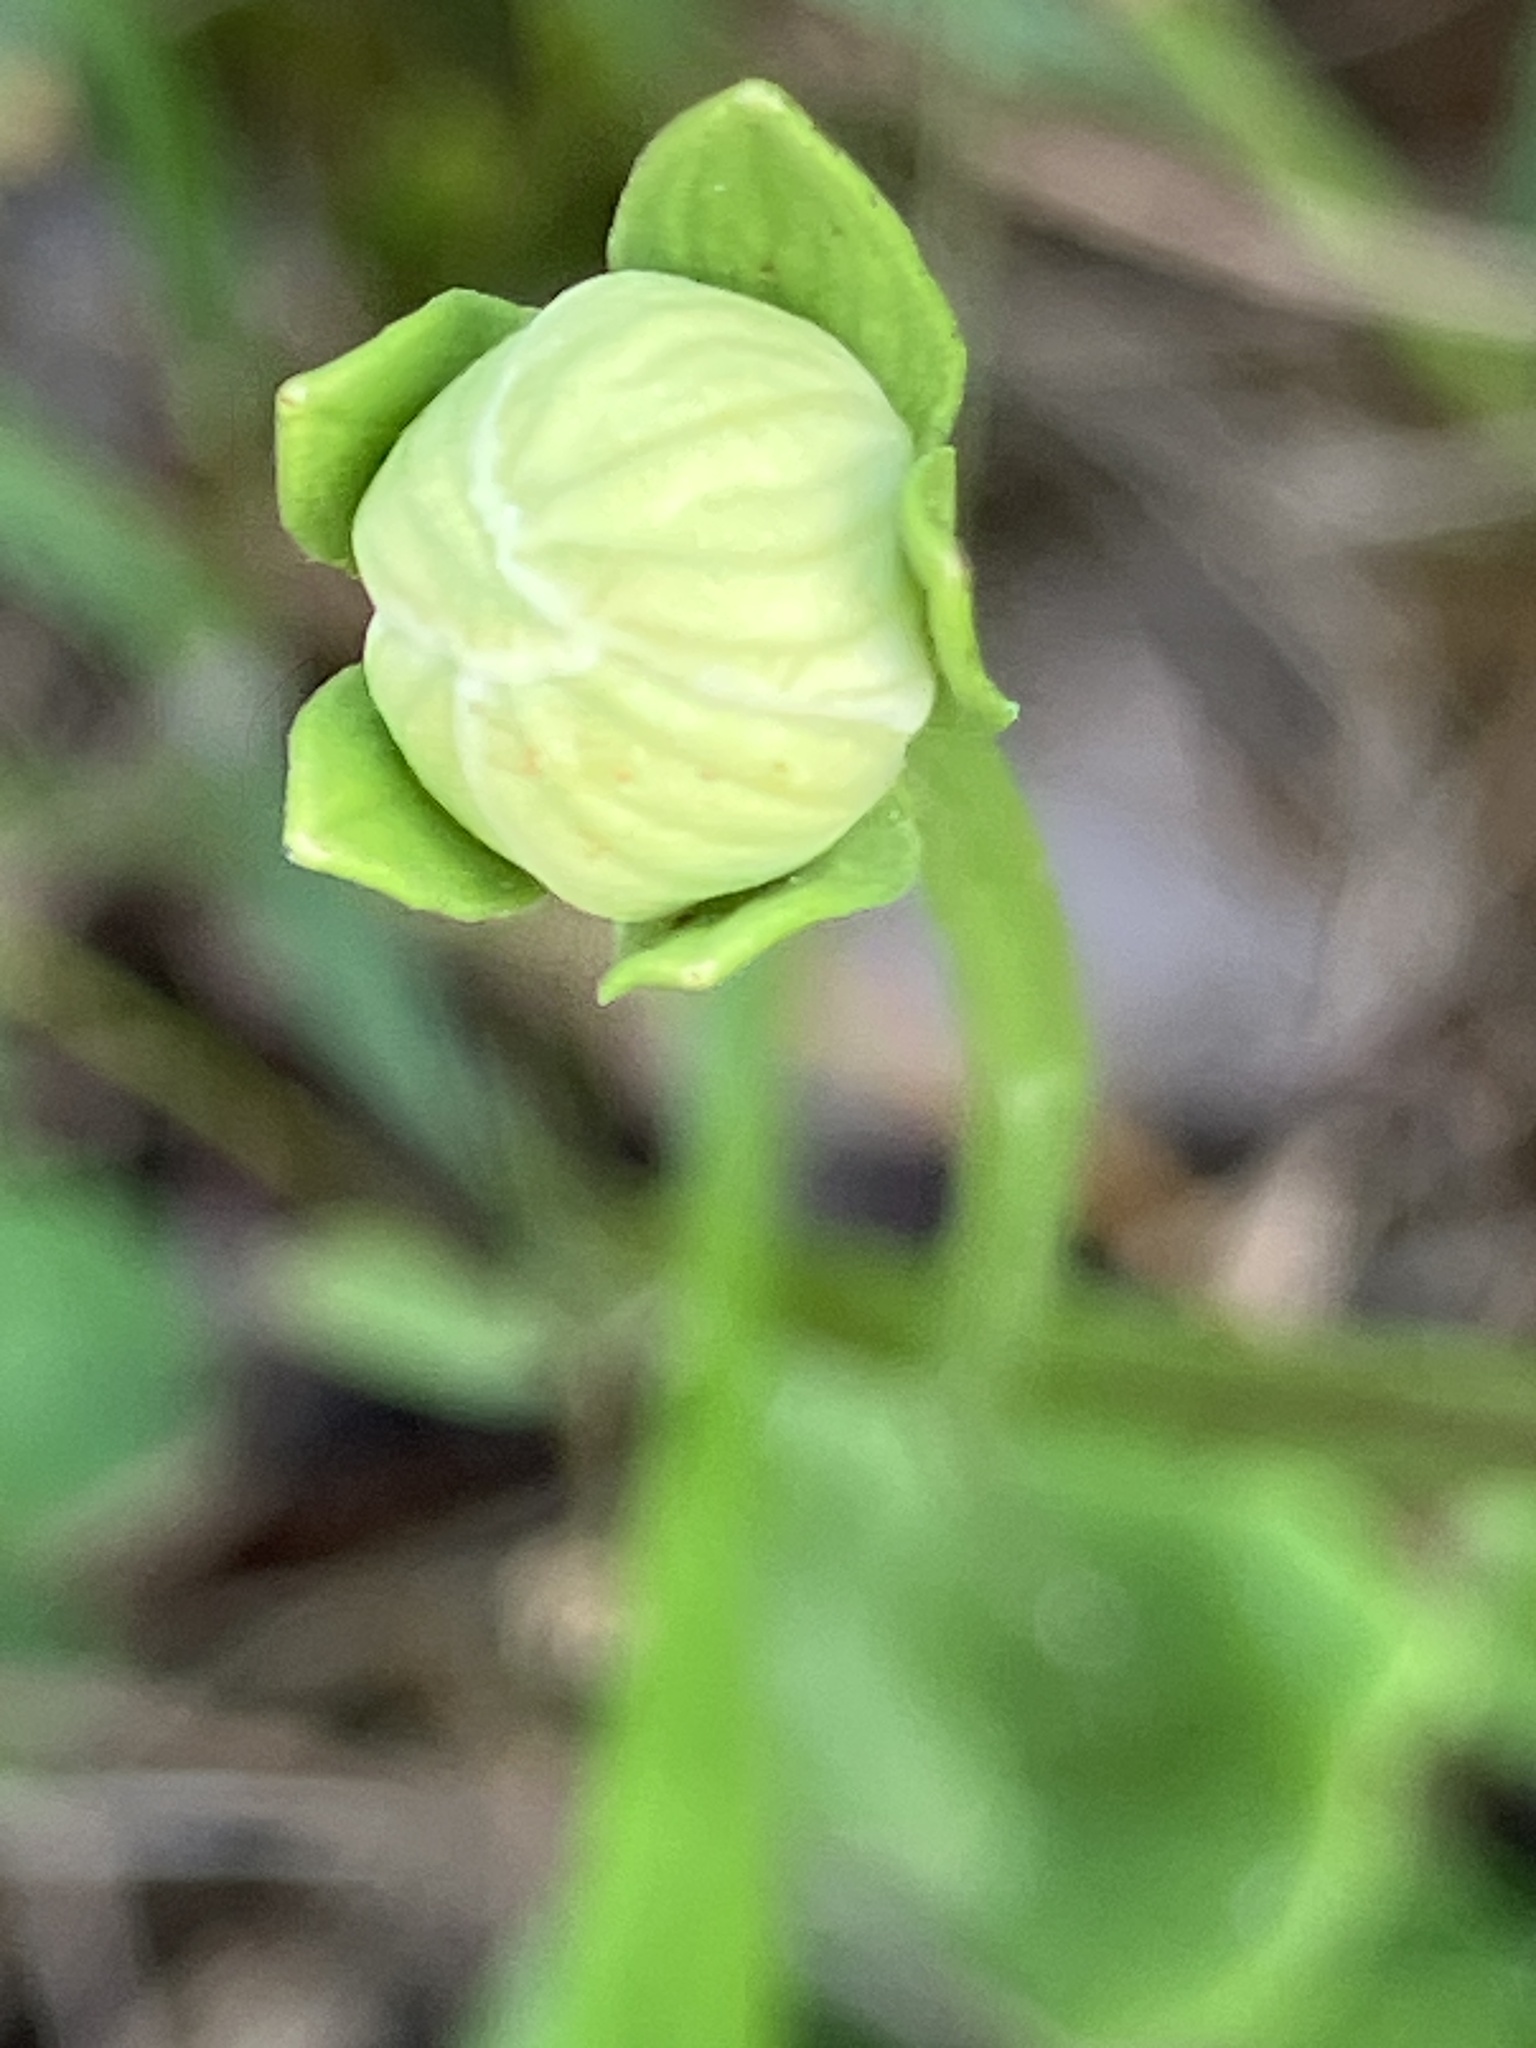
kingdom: Plantae
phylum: Tracheophyta
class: Magnoliopsida
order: Celastrales
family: Parnassiaceae
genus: Parnassia
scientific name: Parnassia palustris
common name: Grass-of-parnassus
